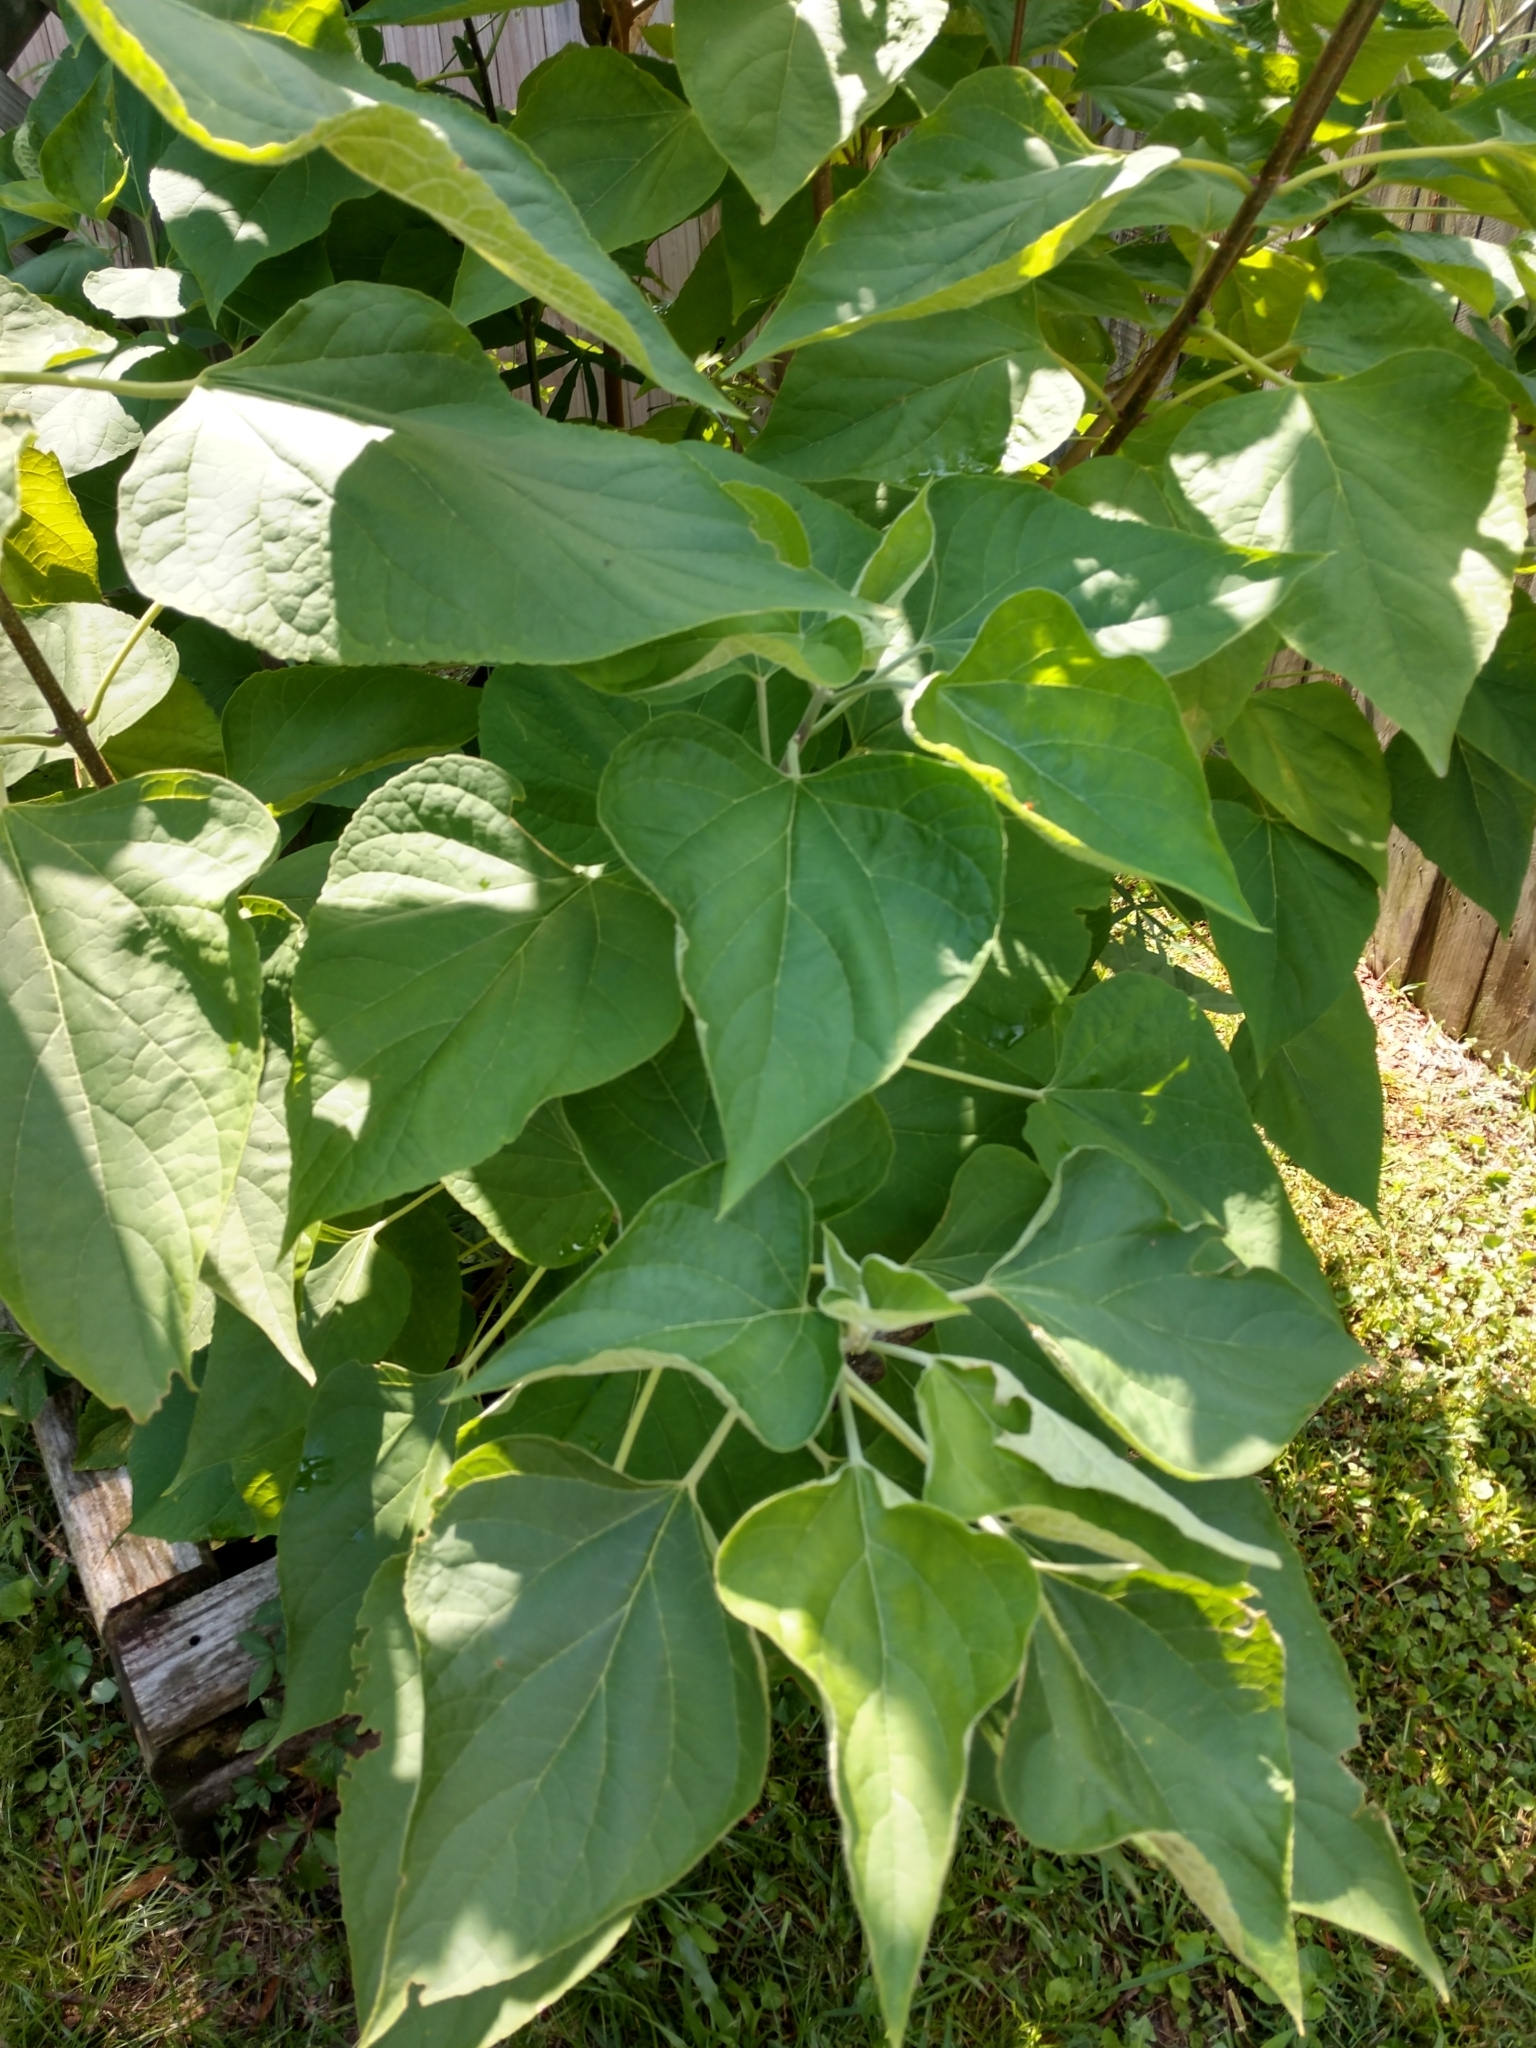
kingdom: Plantae
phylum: Tracheophyta
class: Magnoliopsida
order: Lamiales
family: Lamiaceae
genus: Clerodendrum
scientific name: Clerodendrum trichotomum
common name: Harlequin glorybower
